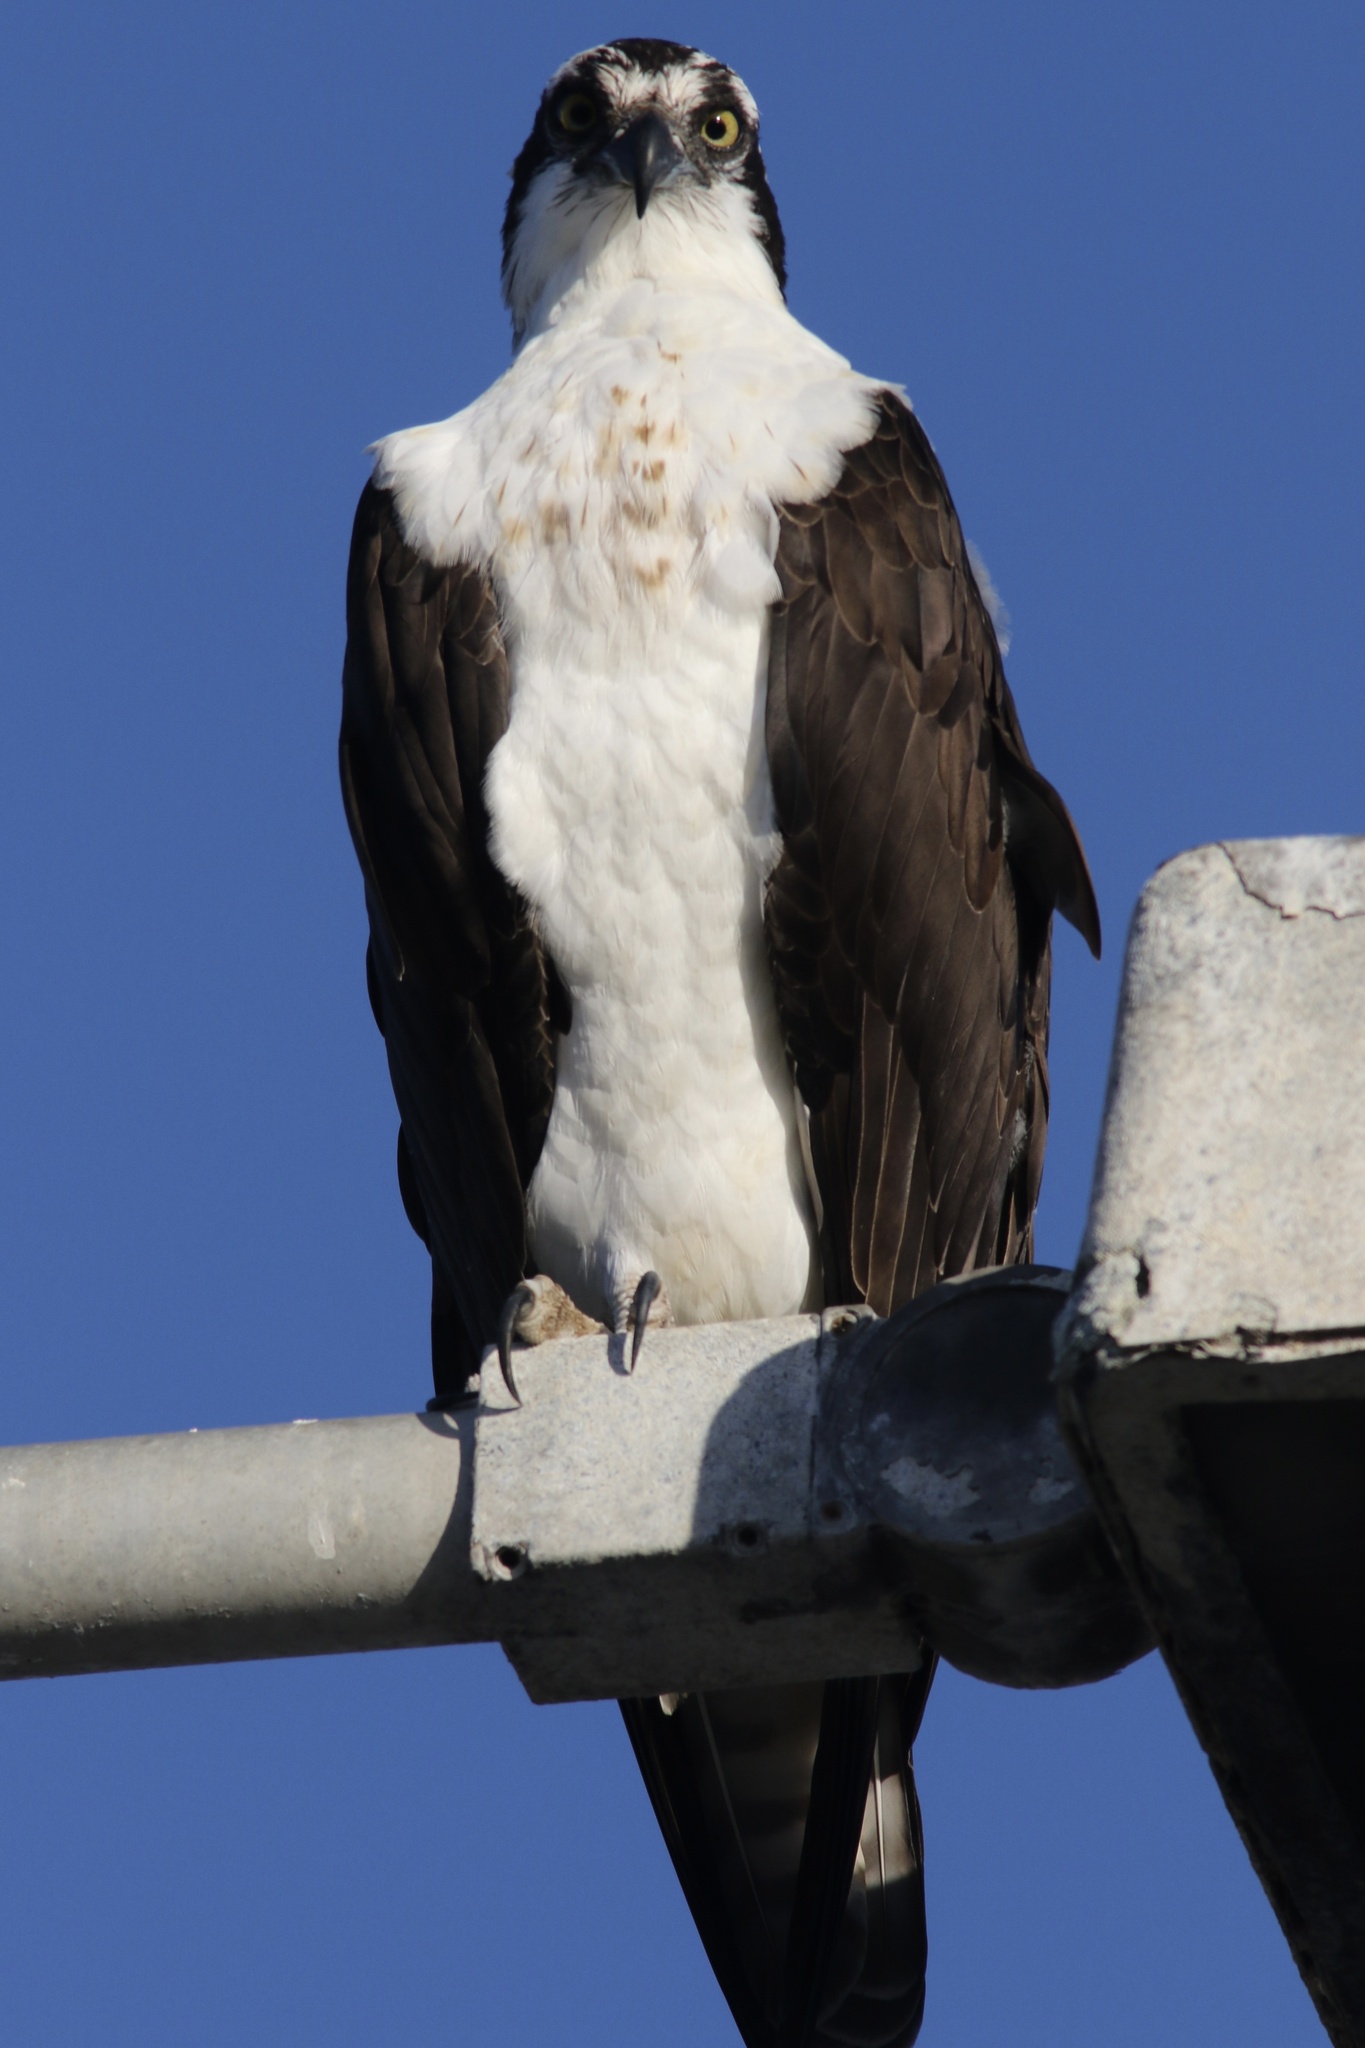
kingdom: Animalia
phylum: Chordata
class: Aves
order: Accipitriformes
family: Pandionidae
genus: Pandion
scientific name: Pandion haliaetus
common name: Osprey
